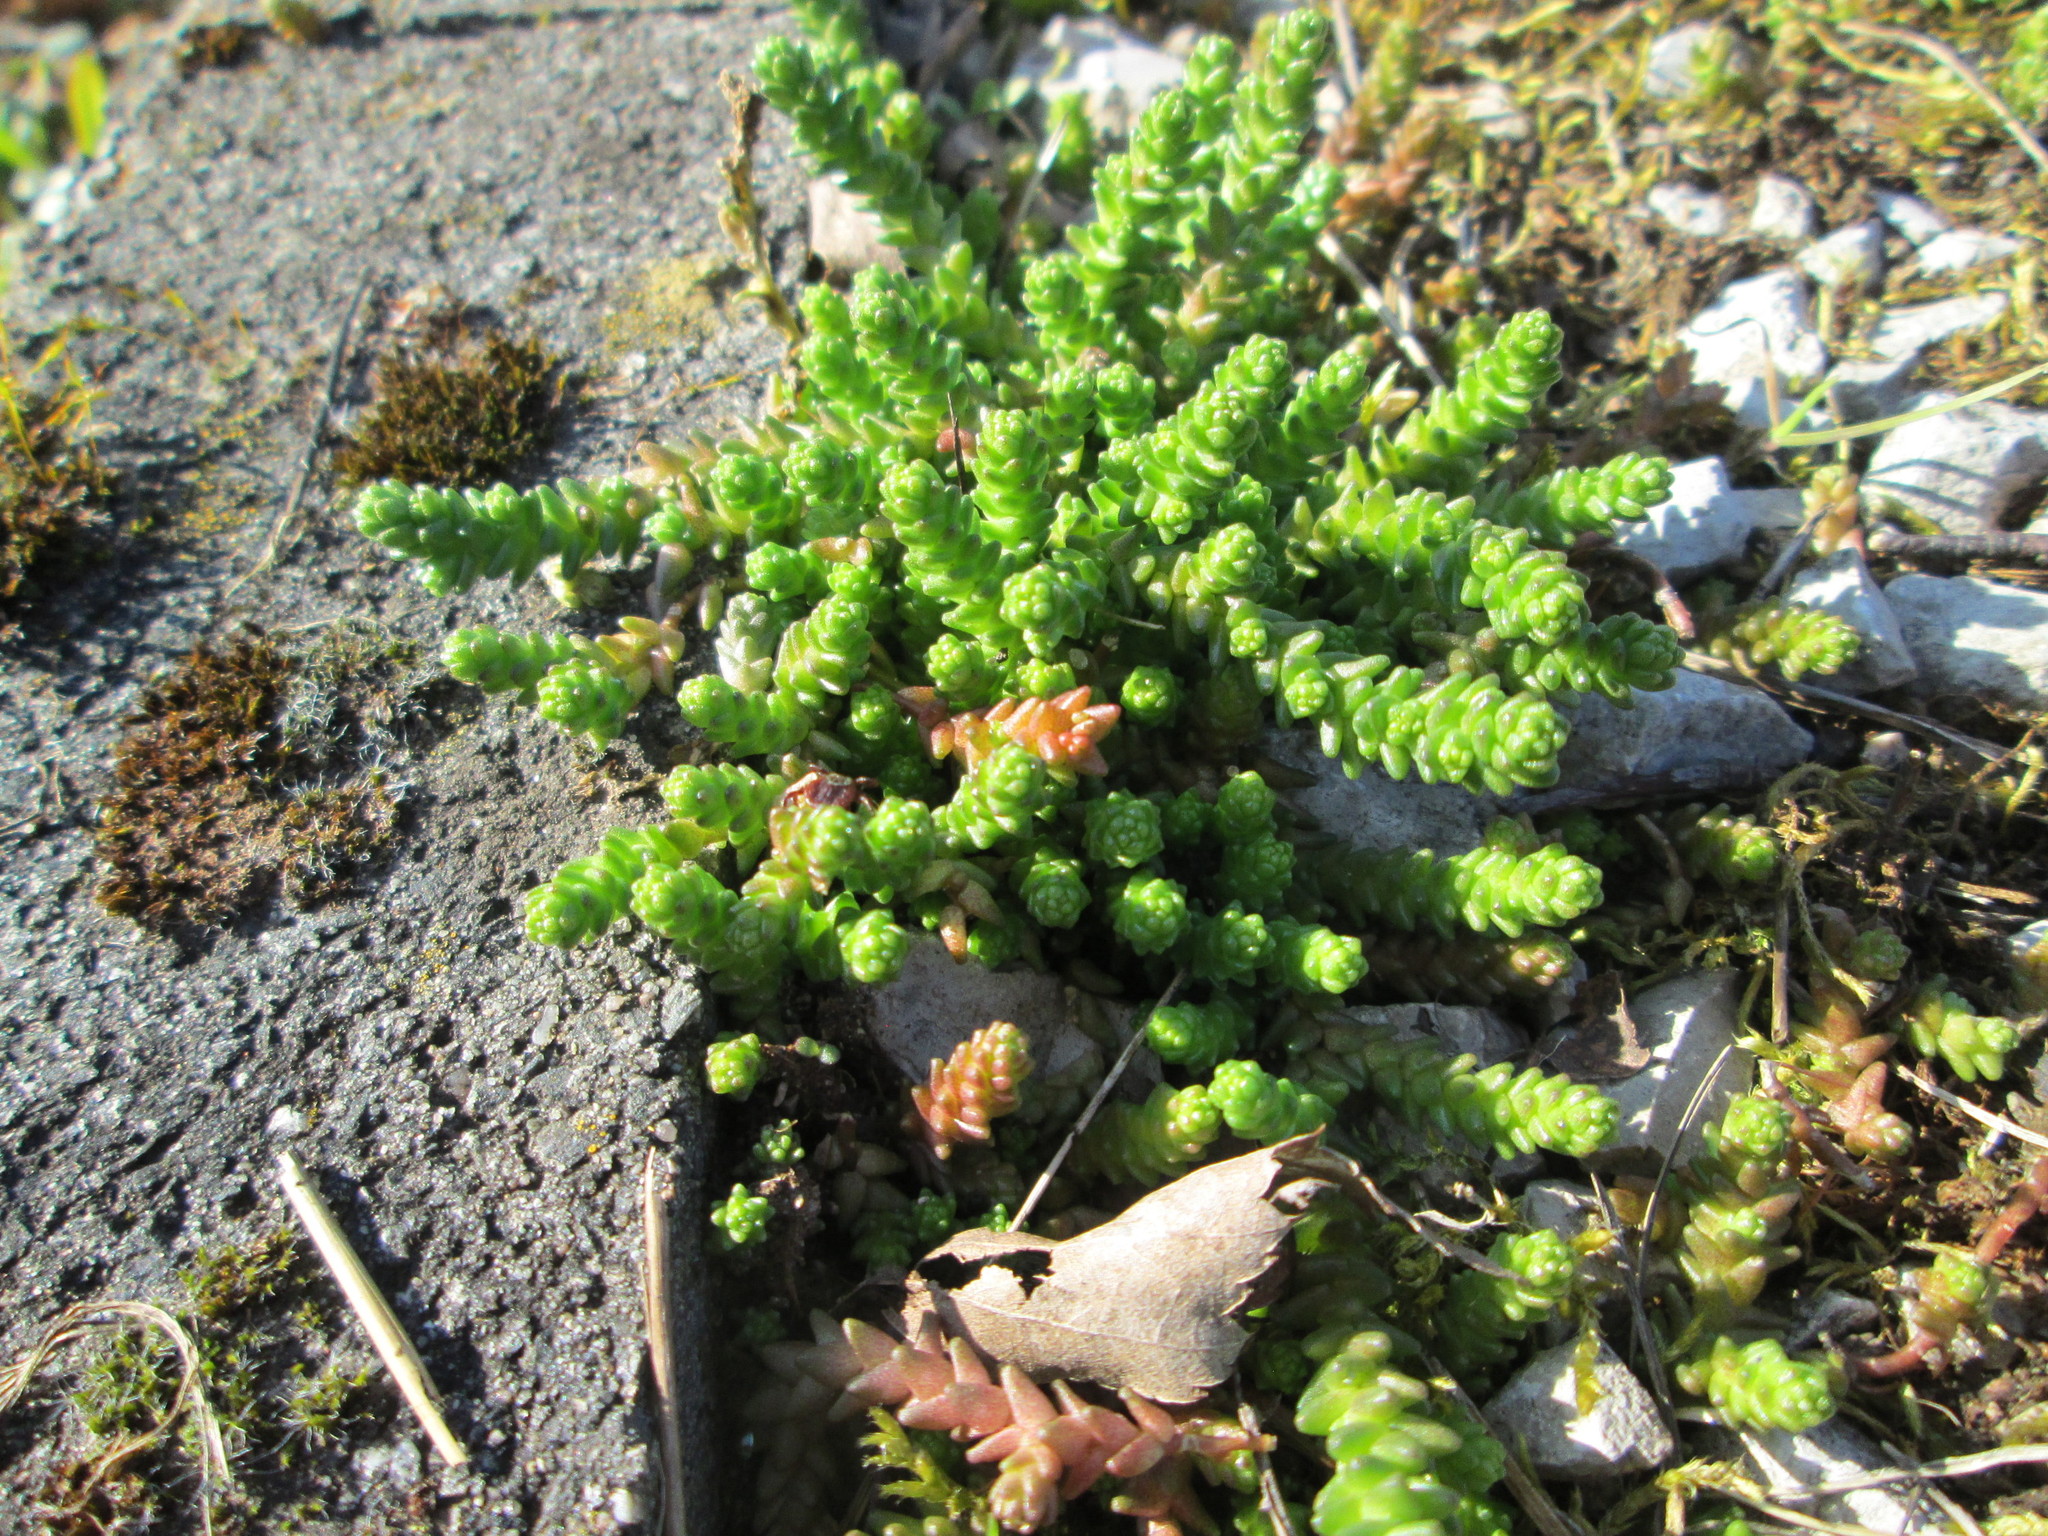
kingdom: Plantae
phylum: Tracheophyta
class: Magnoliopsida
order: Saxifragales
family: Crassulaceae
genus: Sedum
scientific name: Sedum acre
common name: Biting stonecrop
